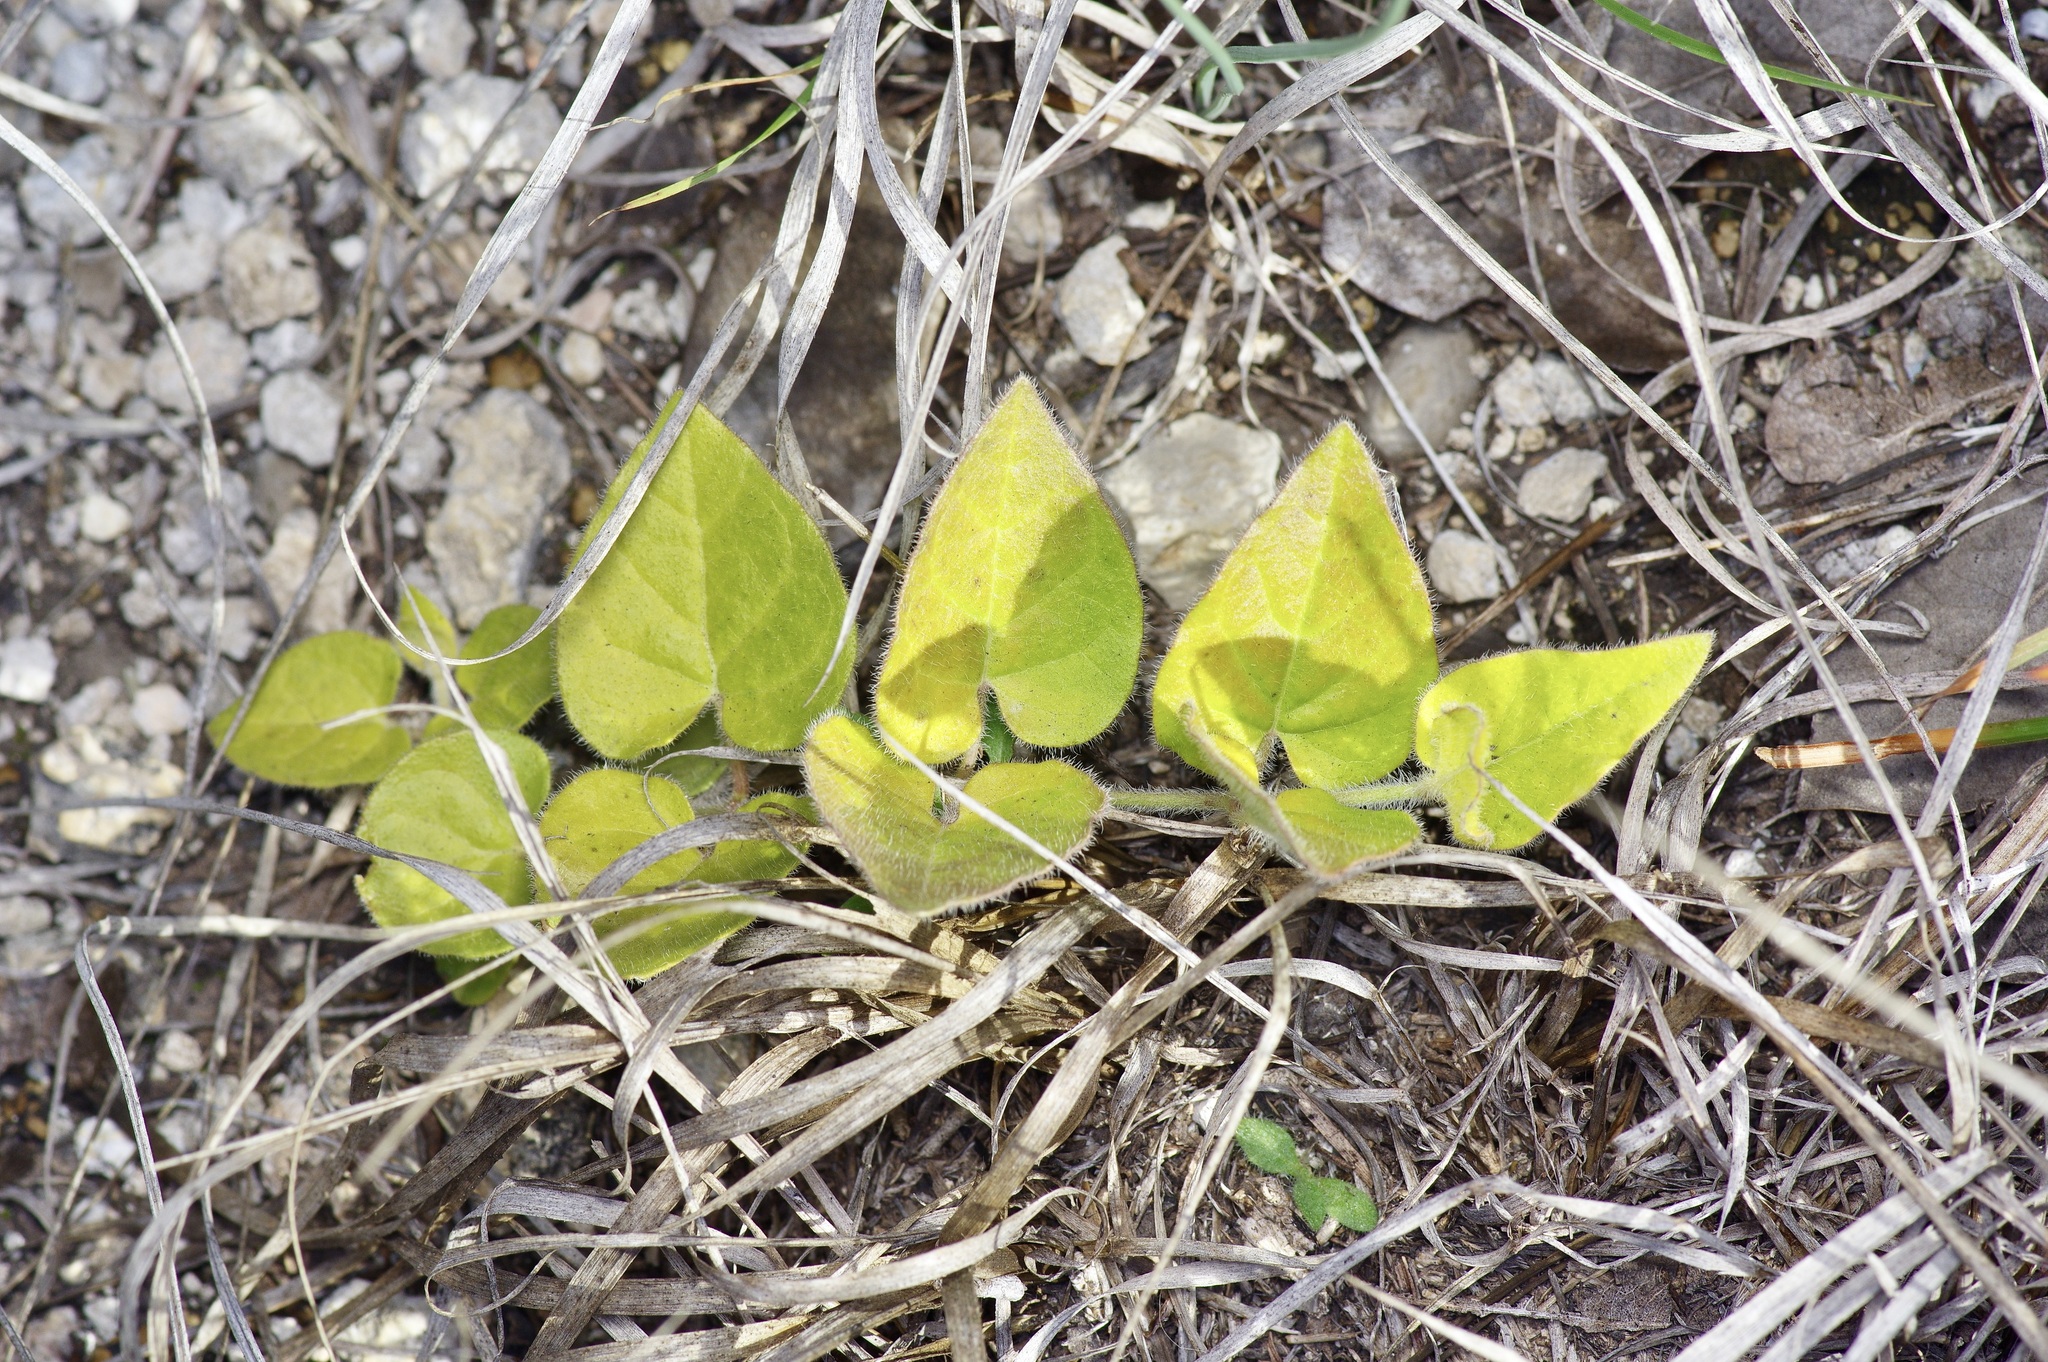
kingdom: Plantae
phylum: Tracheophyta
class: Magnoliopsida
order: Gentianales
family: Apocynaceae
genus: Chthamalia
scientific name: Chthamalia biflora
